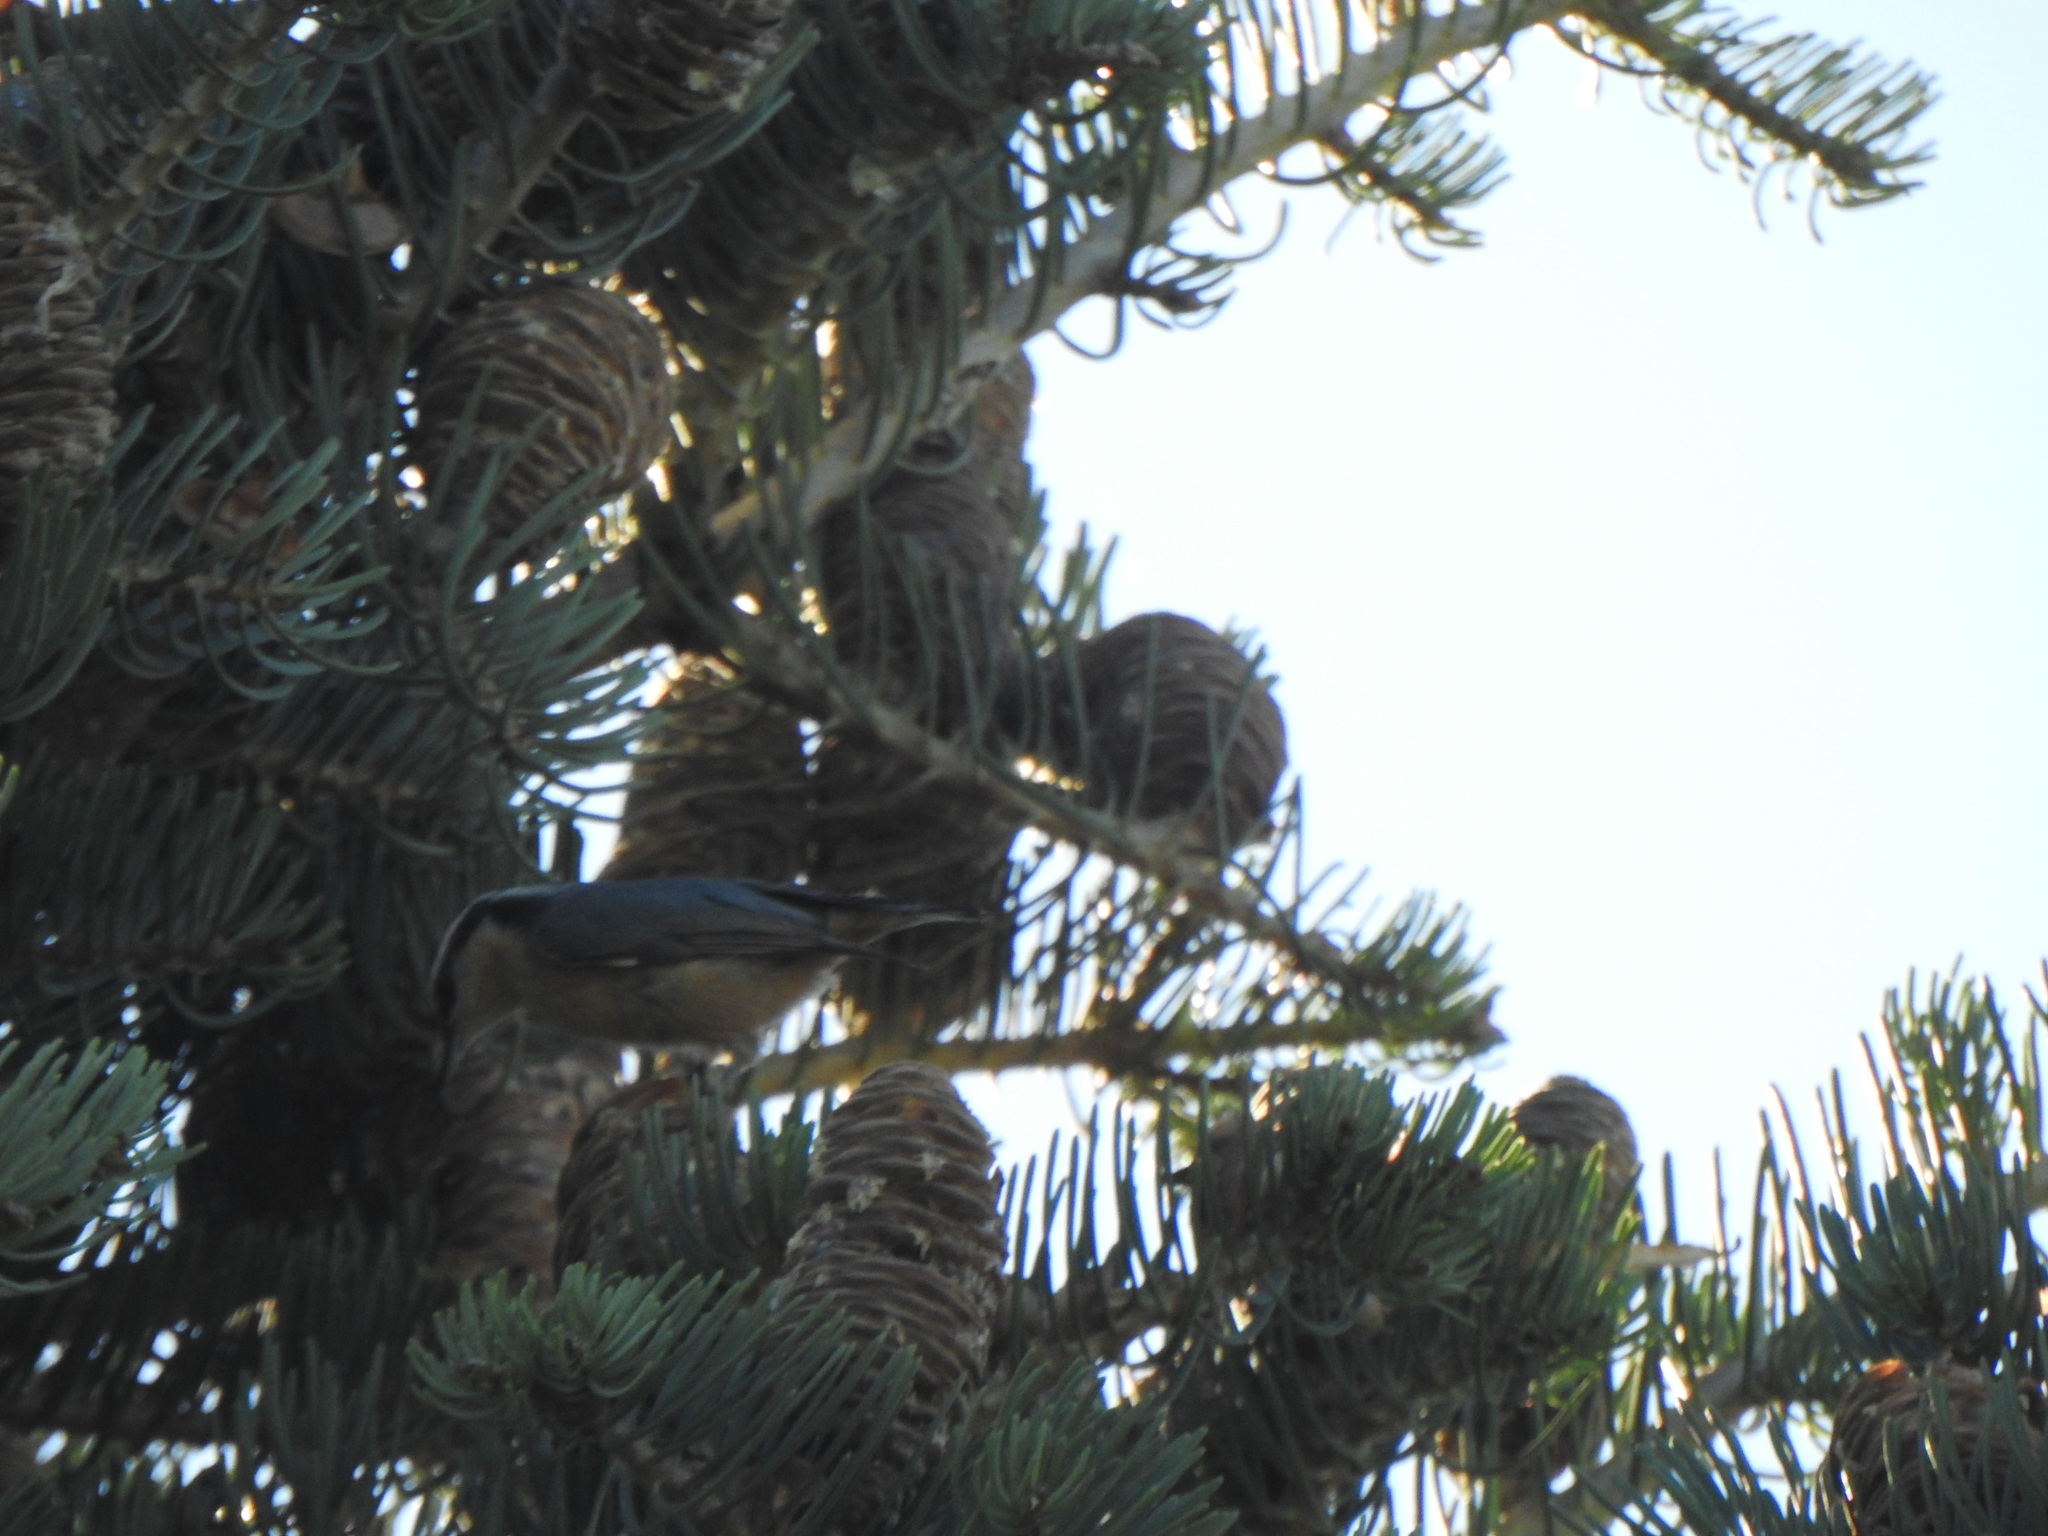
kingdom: Animalia
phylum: Chordata
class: Aves
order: Passeriformes
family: Sittidae
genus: Sitta
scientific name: Sitta canadensis
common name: Red-breasted nuthatch
